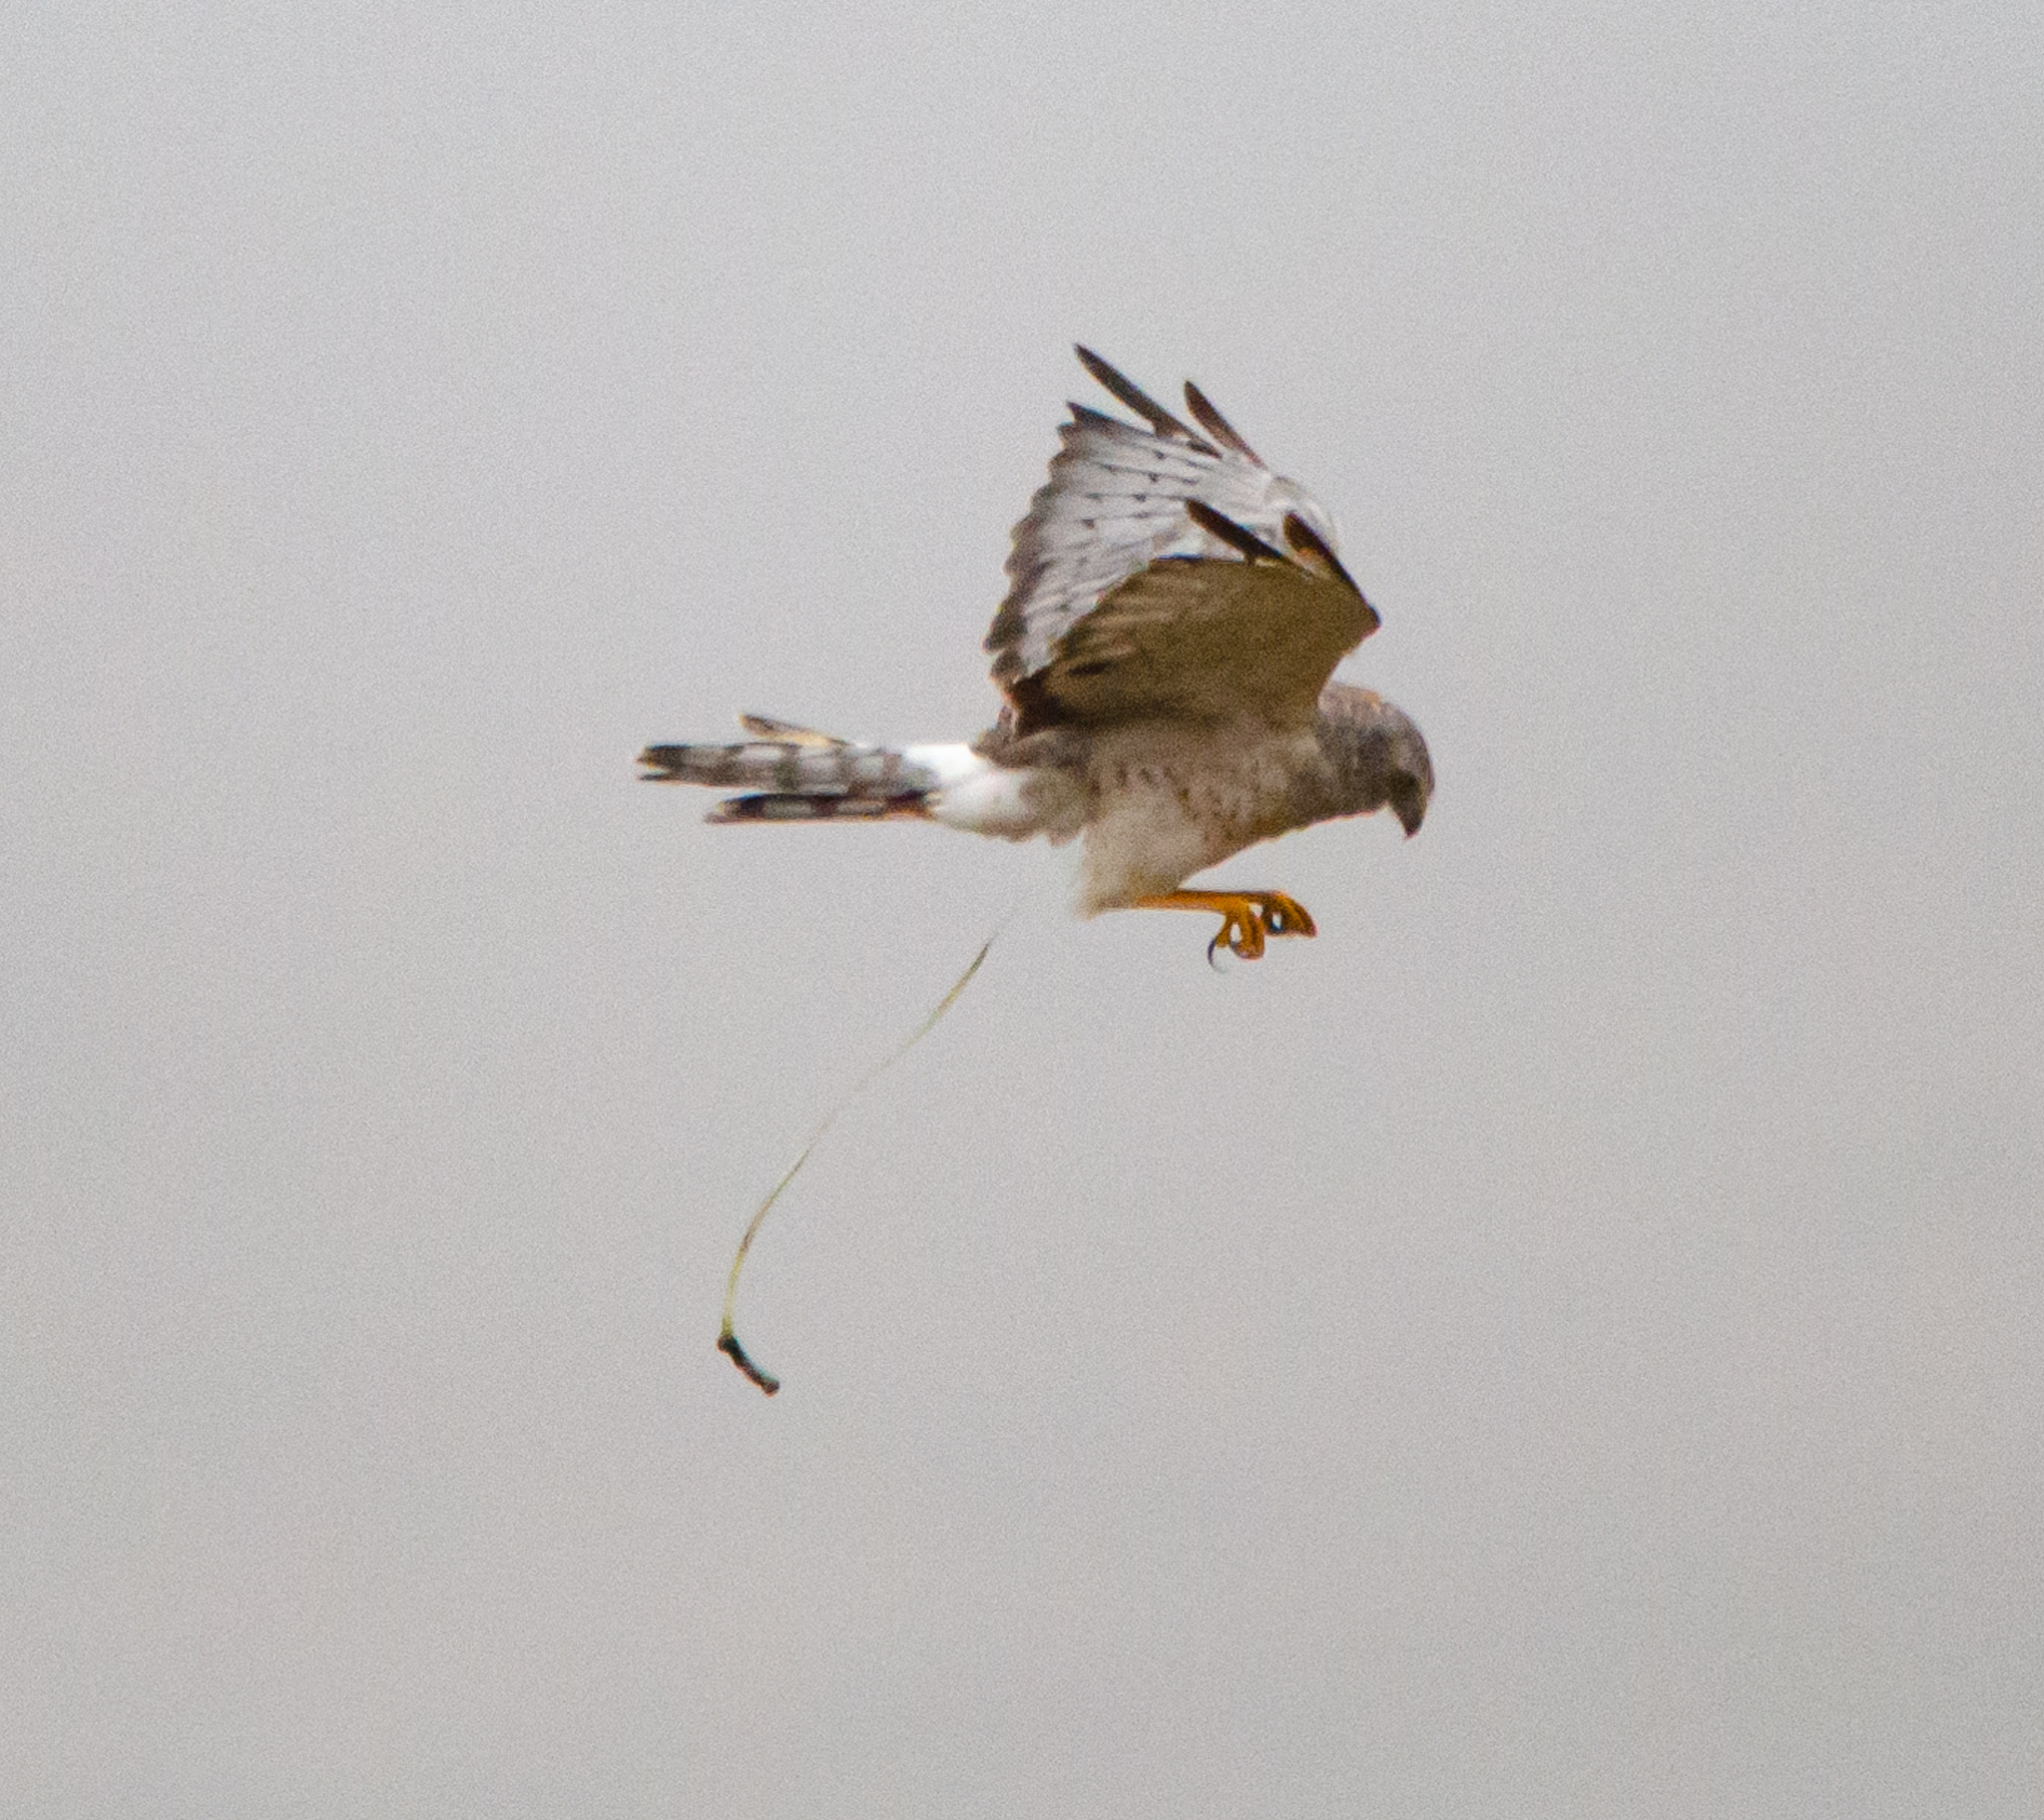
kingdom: Animalia
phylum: Chordata
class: Aves
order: Accipitriformes
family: Accipitridae
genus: Circus
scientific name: Circus cyaneus
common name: Hen harrier
